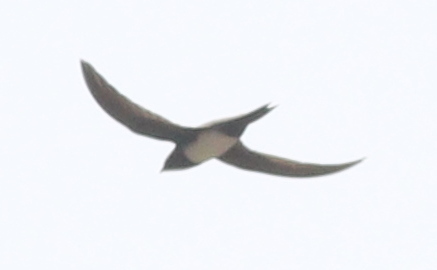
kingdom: Animalia
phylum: Chordata
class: Aves
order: Apodiformes
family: Apodidae
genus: Tachymarptis
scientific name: Tachymarptis melba
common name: Alpine swift
